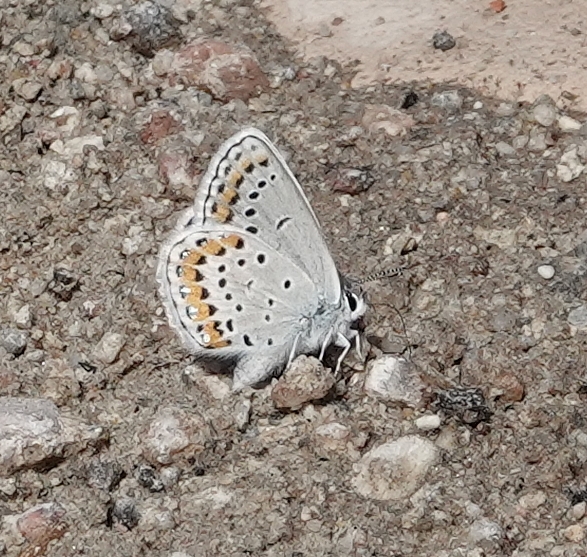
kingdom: Animalia
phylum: Arthropoda
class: Insecta
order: Lepidoptera
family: Lycaenidae
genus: Lycaeides
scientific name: Lycaeides melissa
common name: Melissa blue
